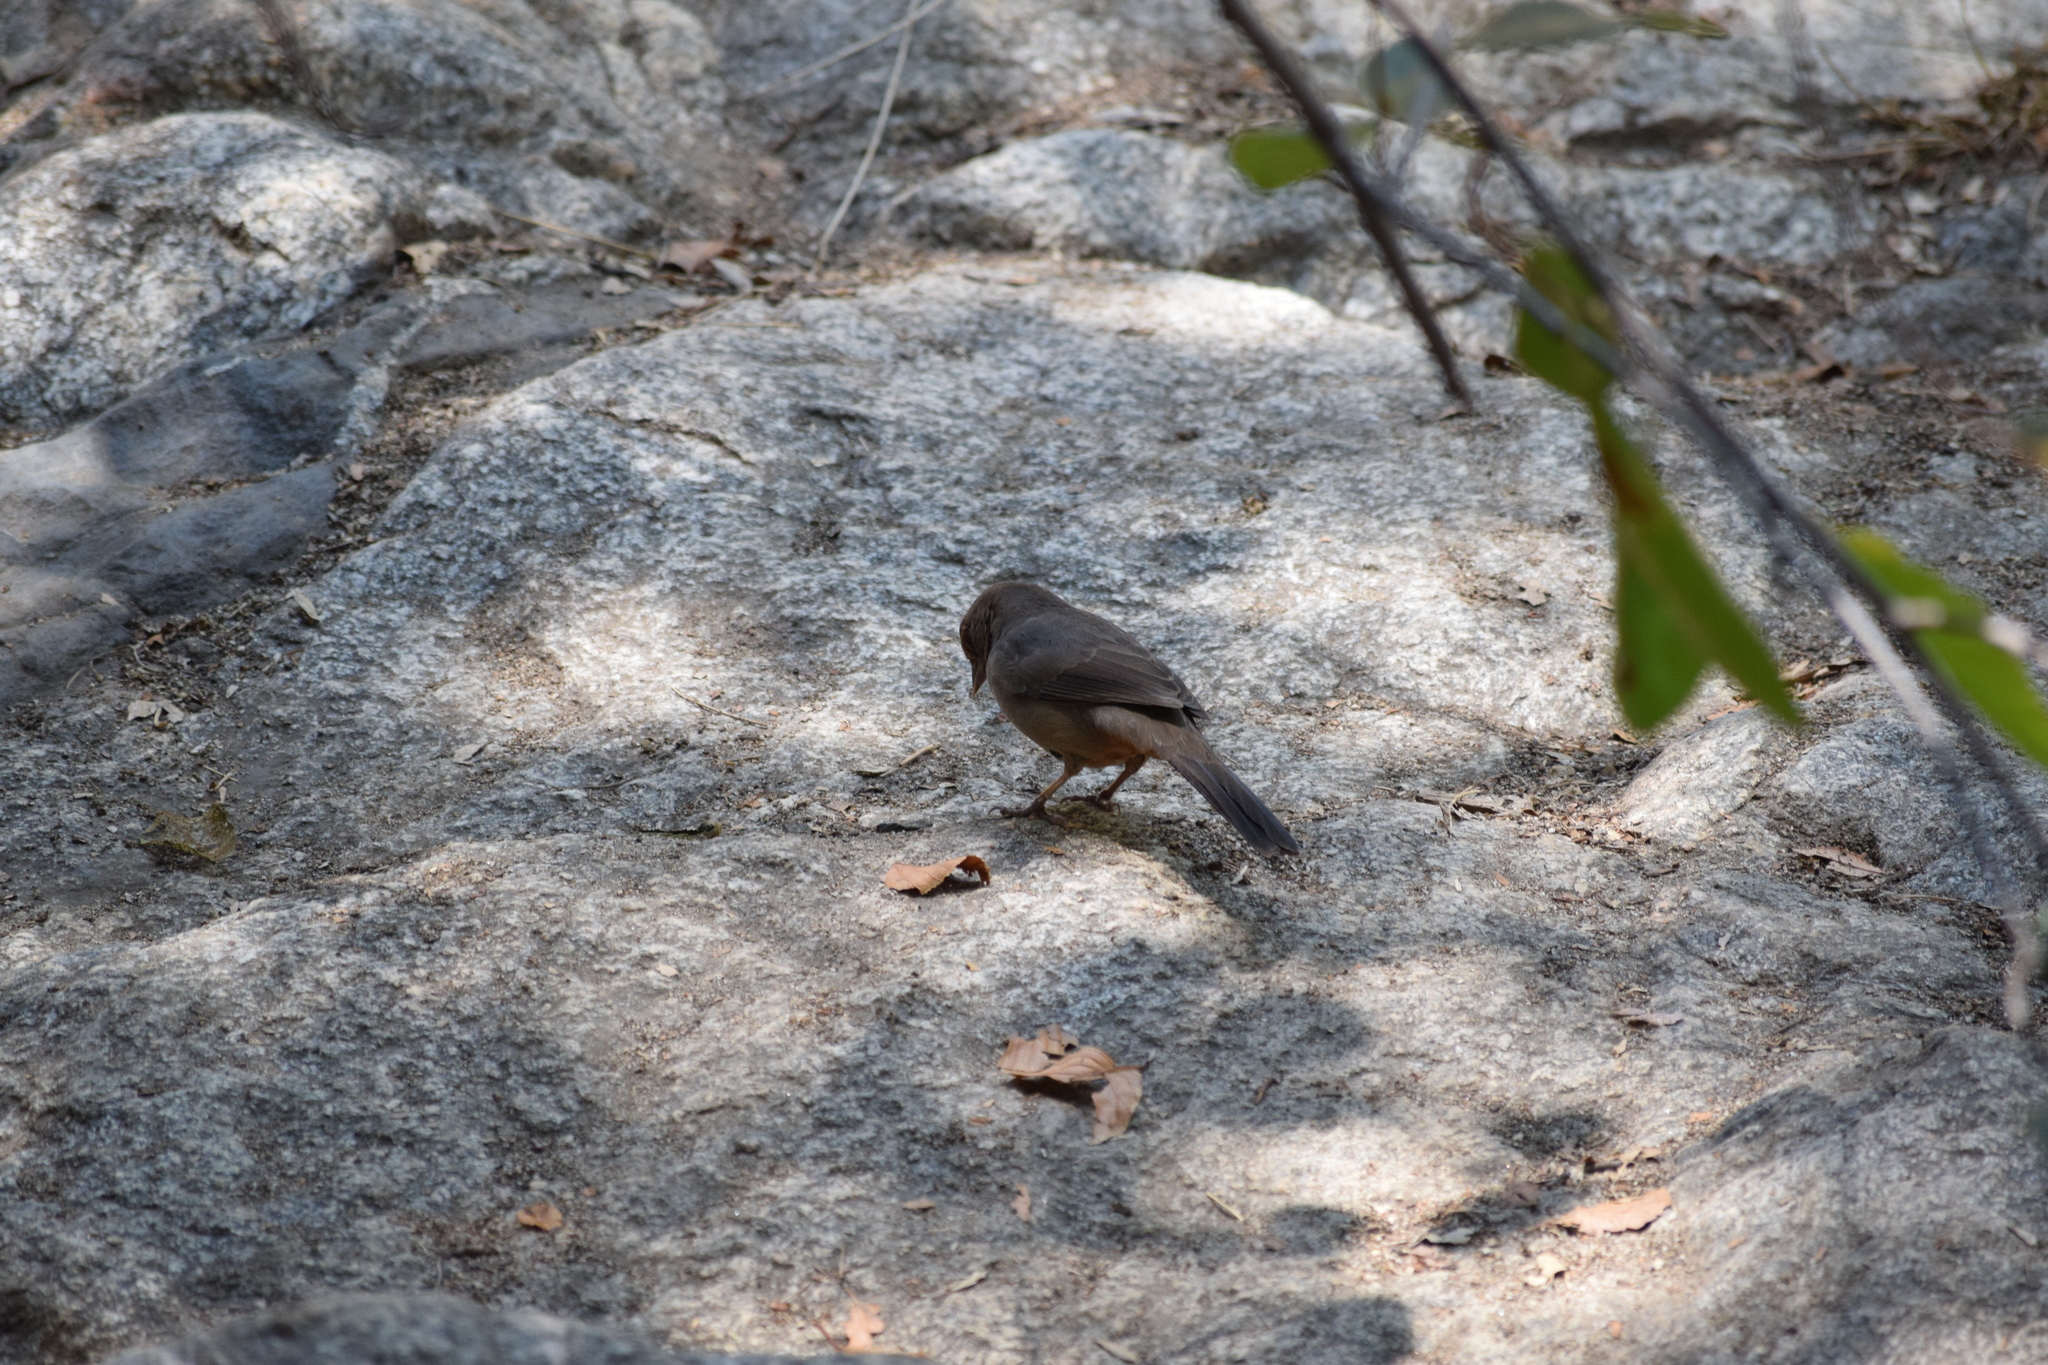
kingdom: Animalia
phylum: Chordata
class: Aves
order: Passeriformes
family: Passerellidae
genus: Melozone
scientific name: Melozone crissalis
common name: California towhee
